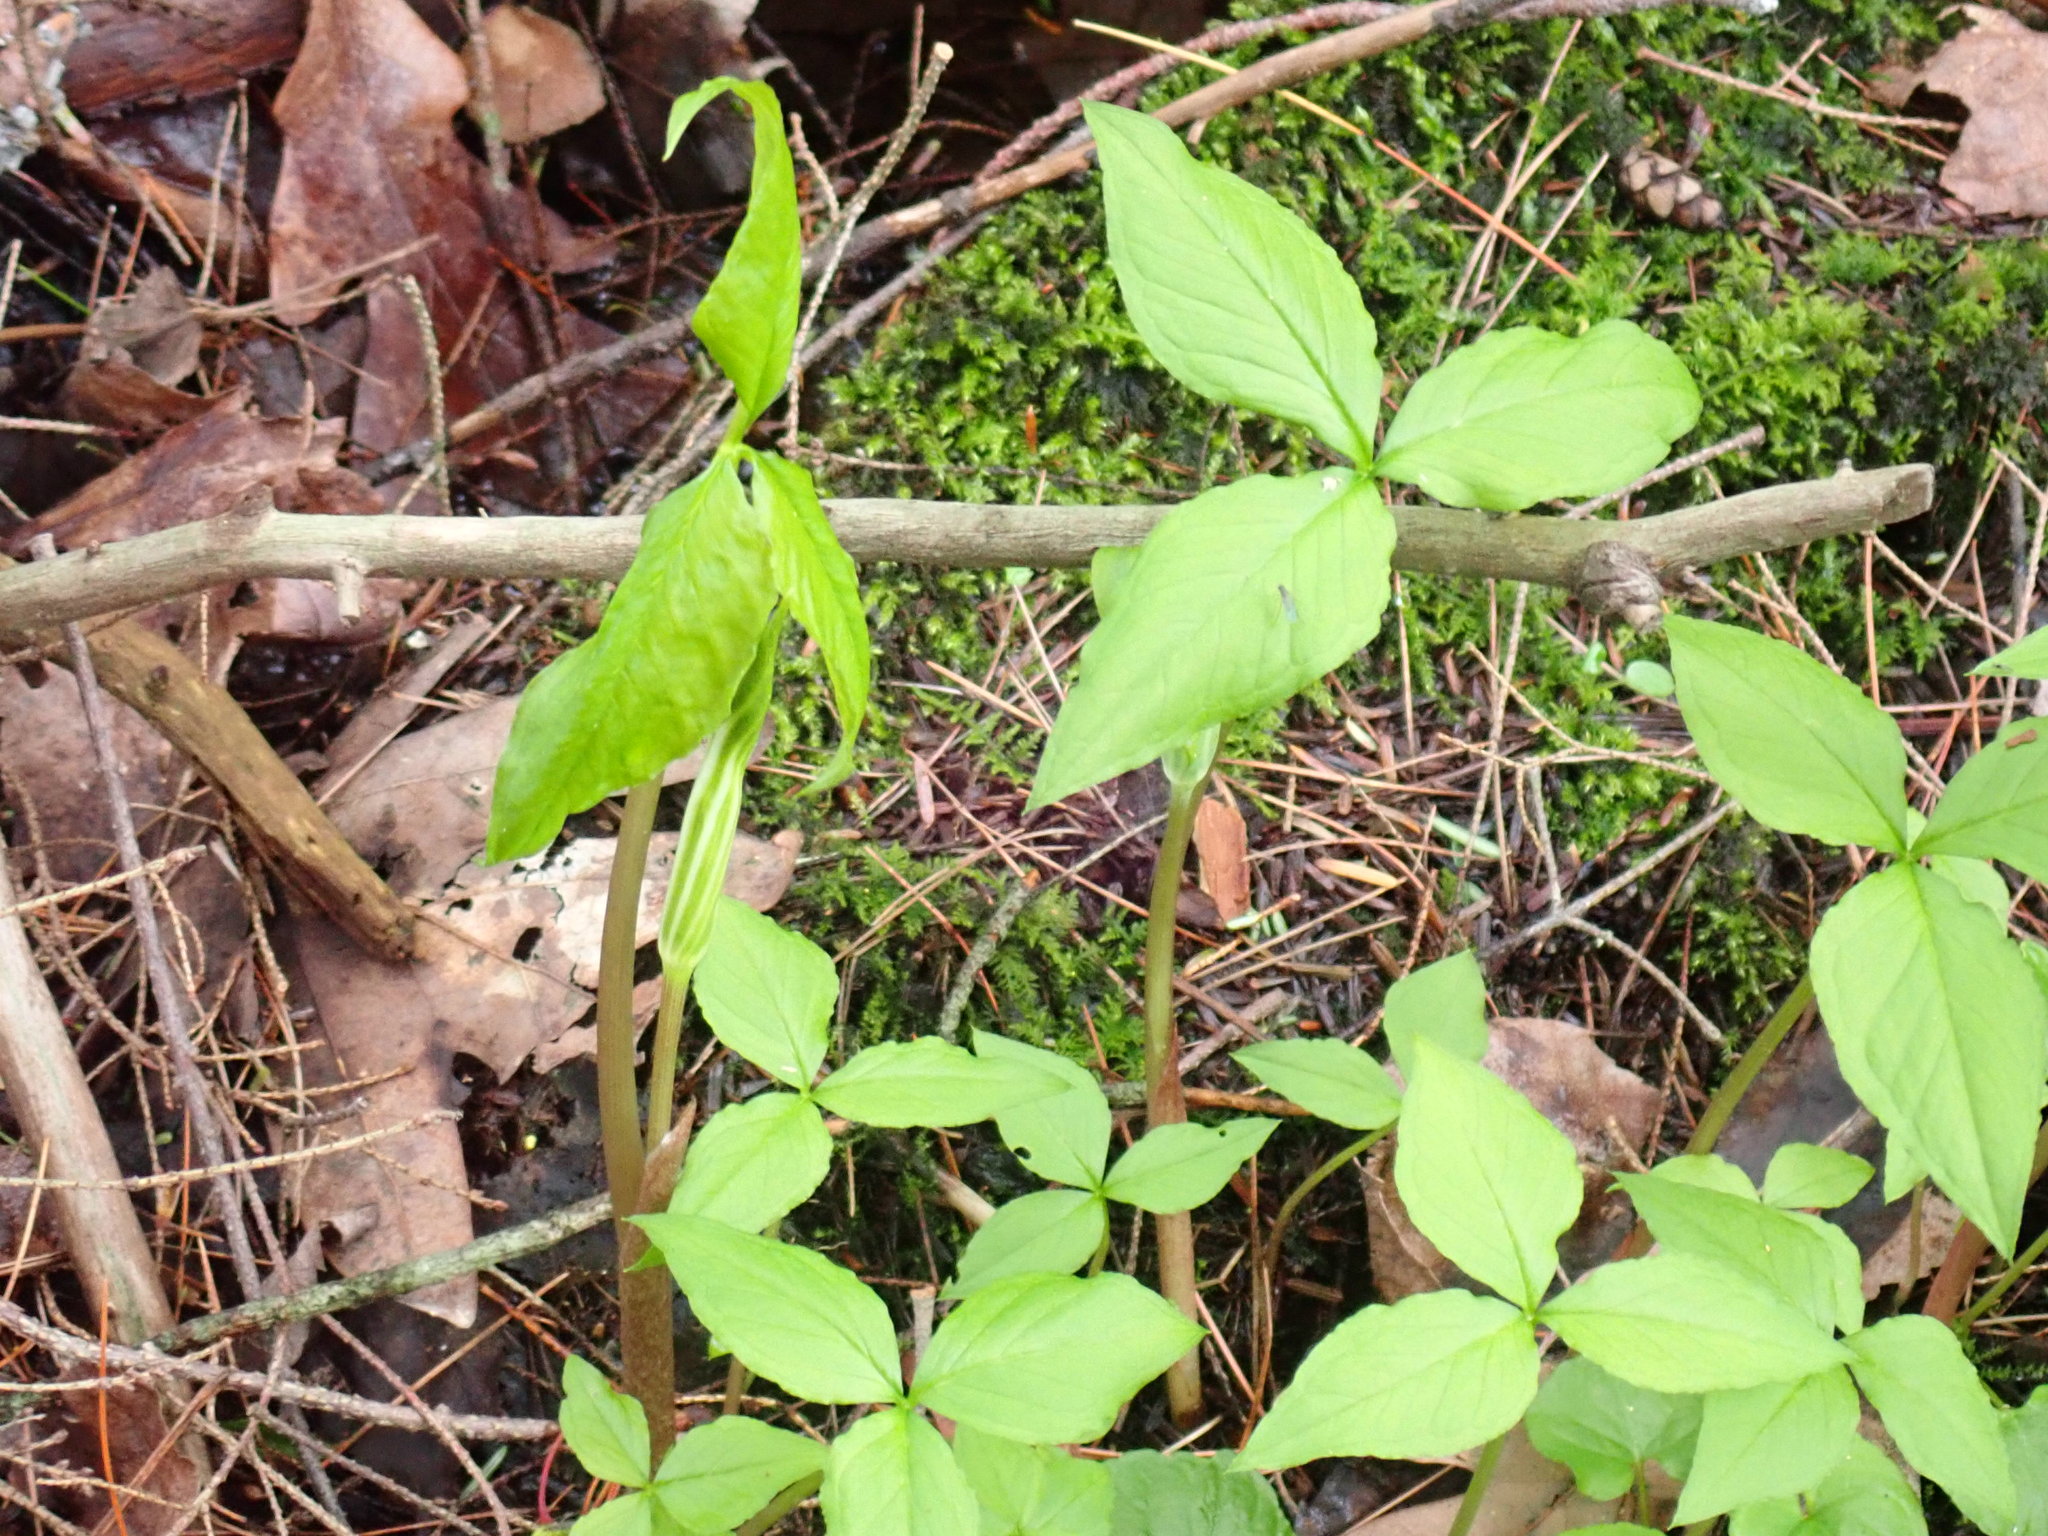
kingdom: Plantae
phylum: Tracheophyta
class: Liliopsida
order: Alismatales
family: Araceae
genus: Arisaema
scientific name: Arisaema triphyllum
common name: Jack-in-the-pulpit
